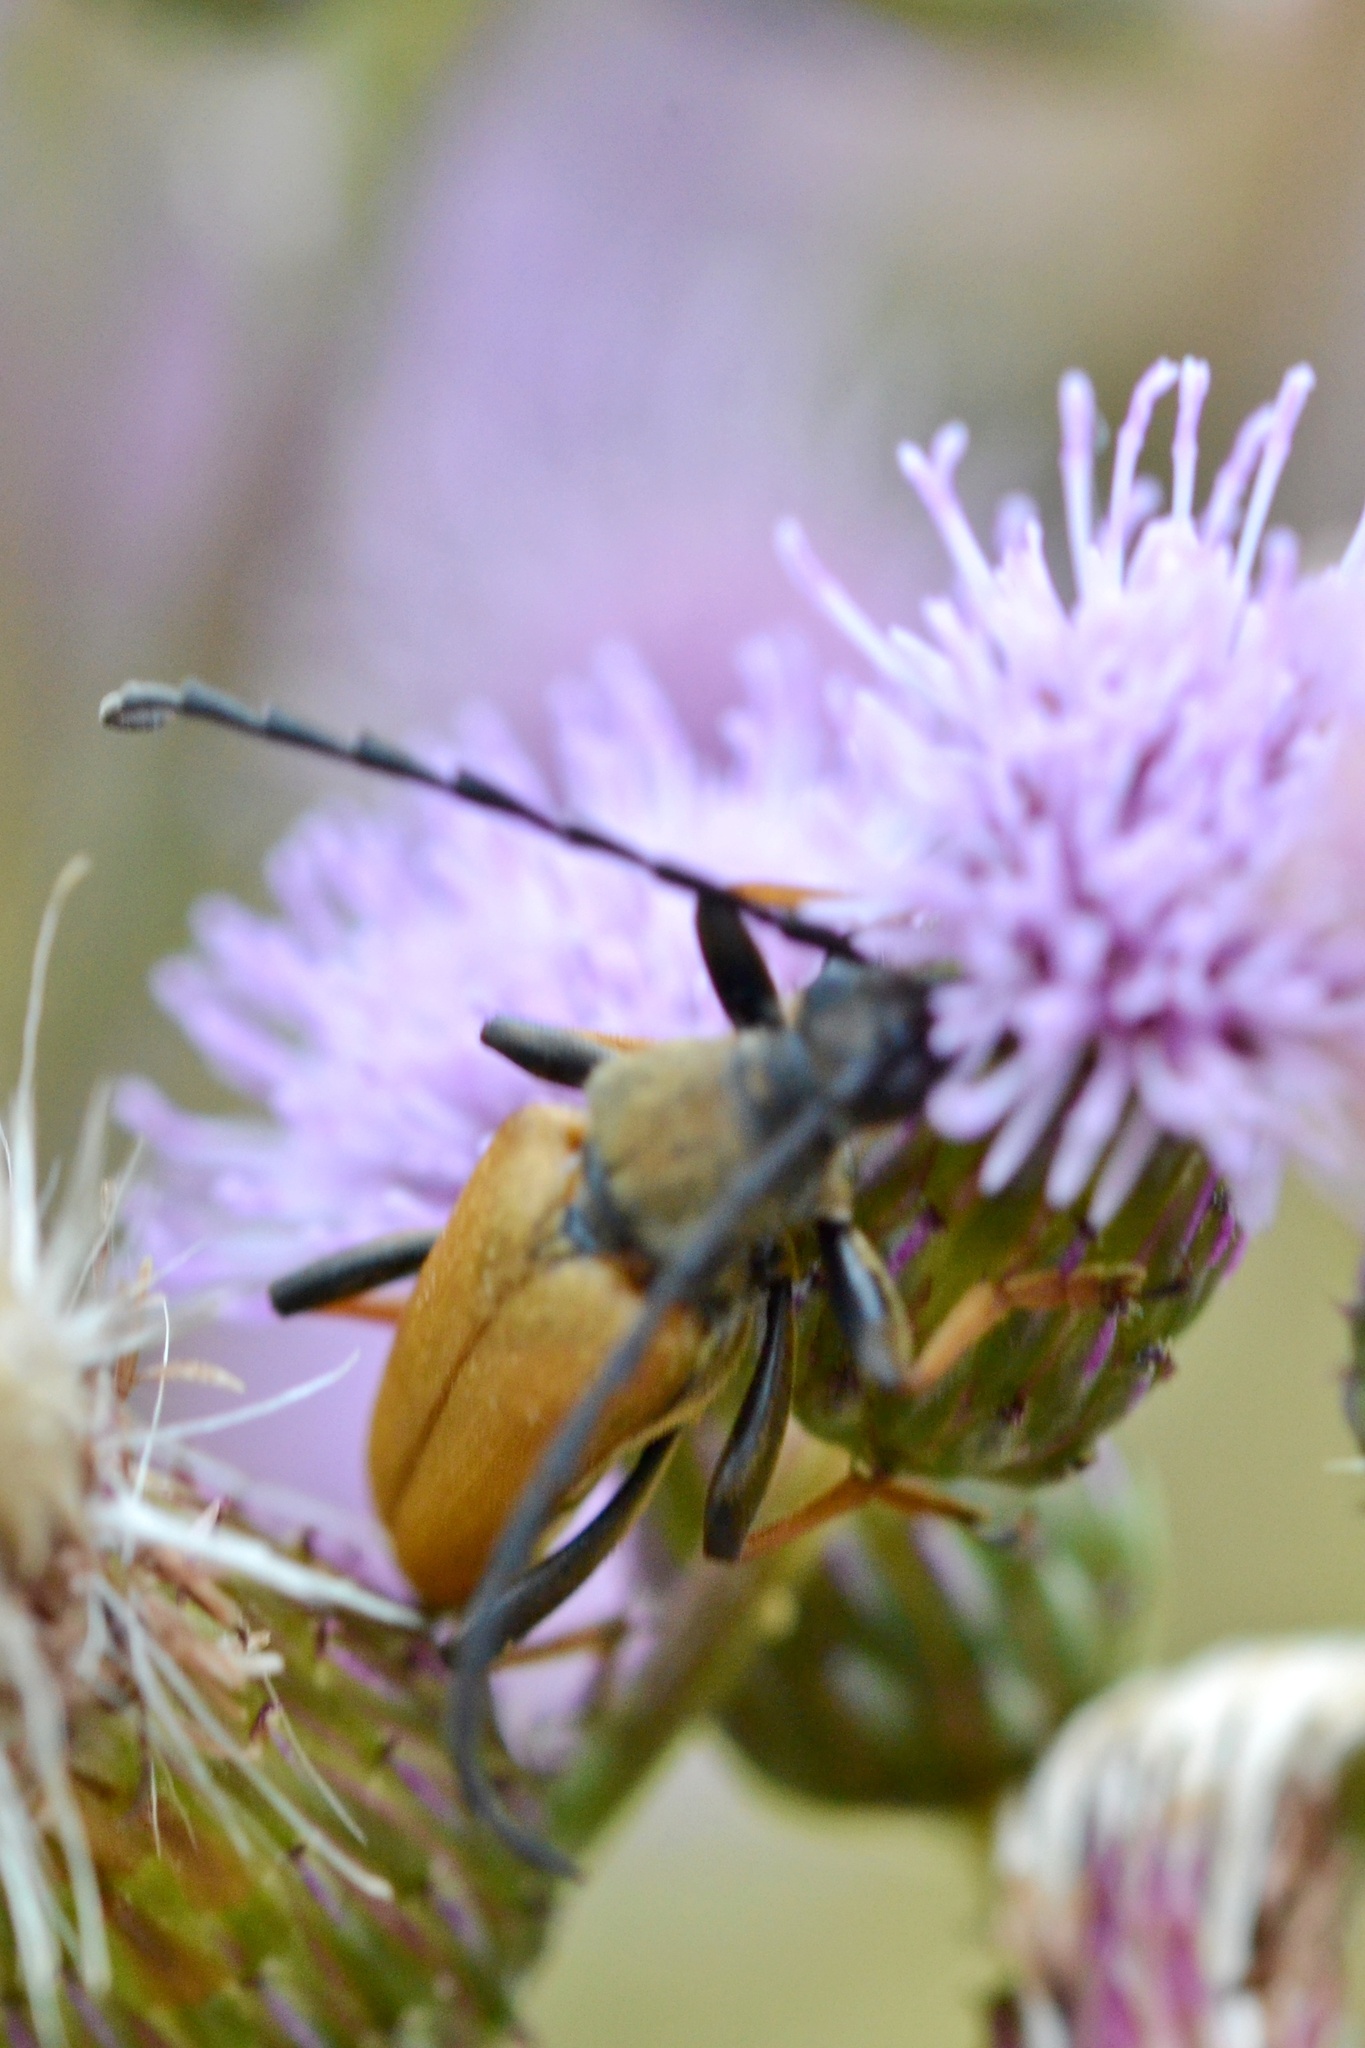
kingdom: Animalia
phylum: Arthropoda
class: Insecta
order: Coleoptera
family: Cerambycidae
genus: Stictoleptura
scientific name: Stictoleptura rubra
